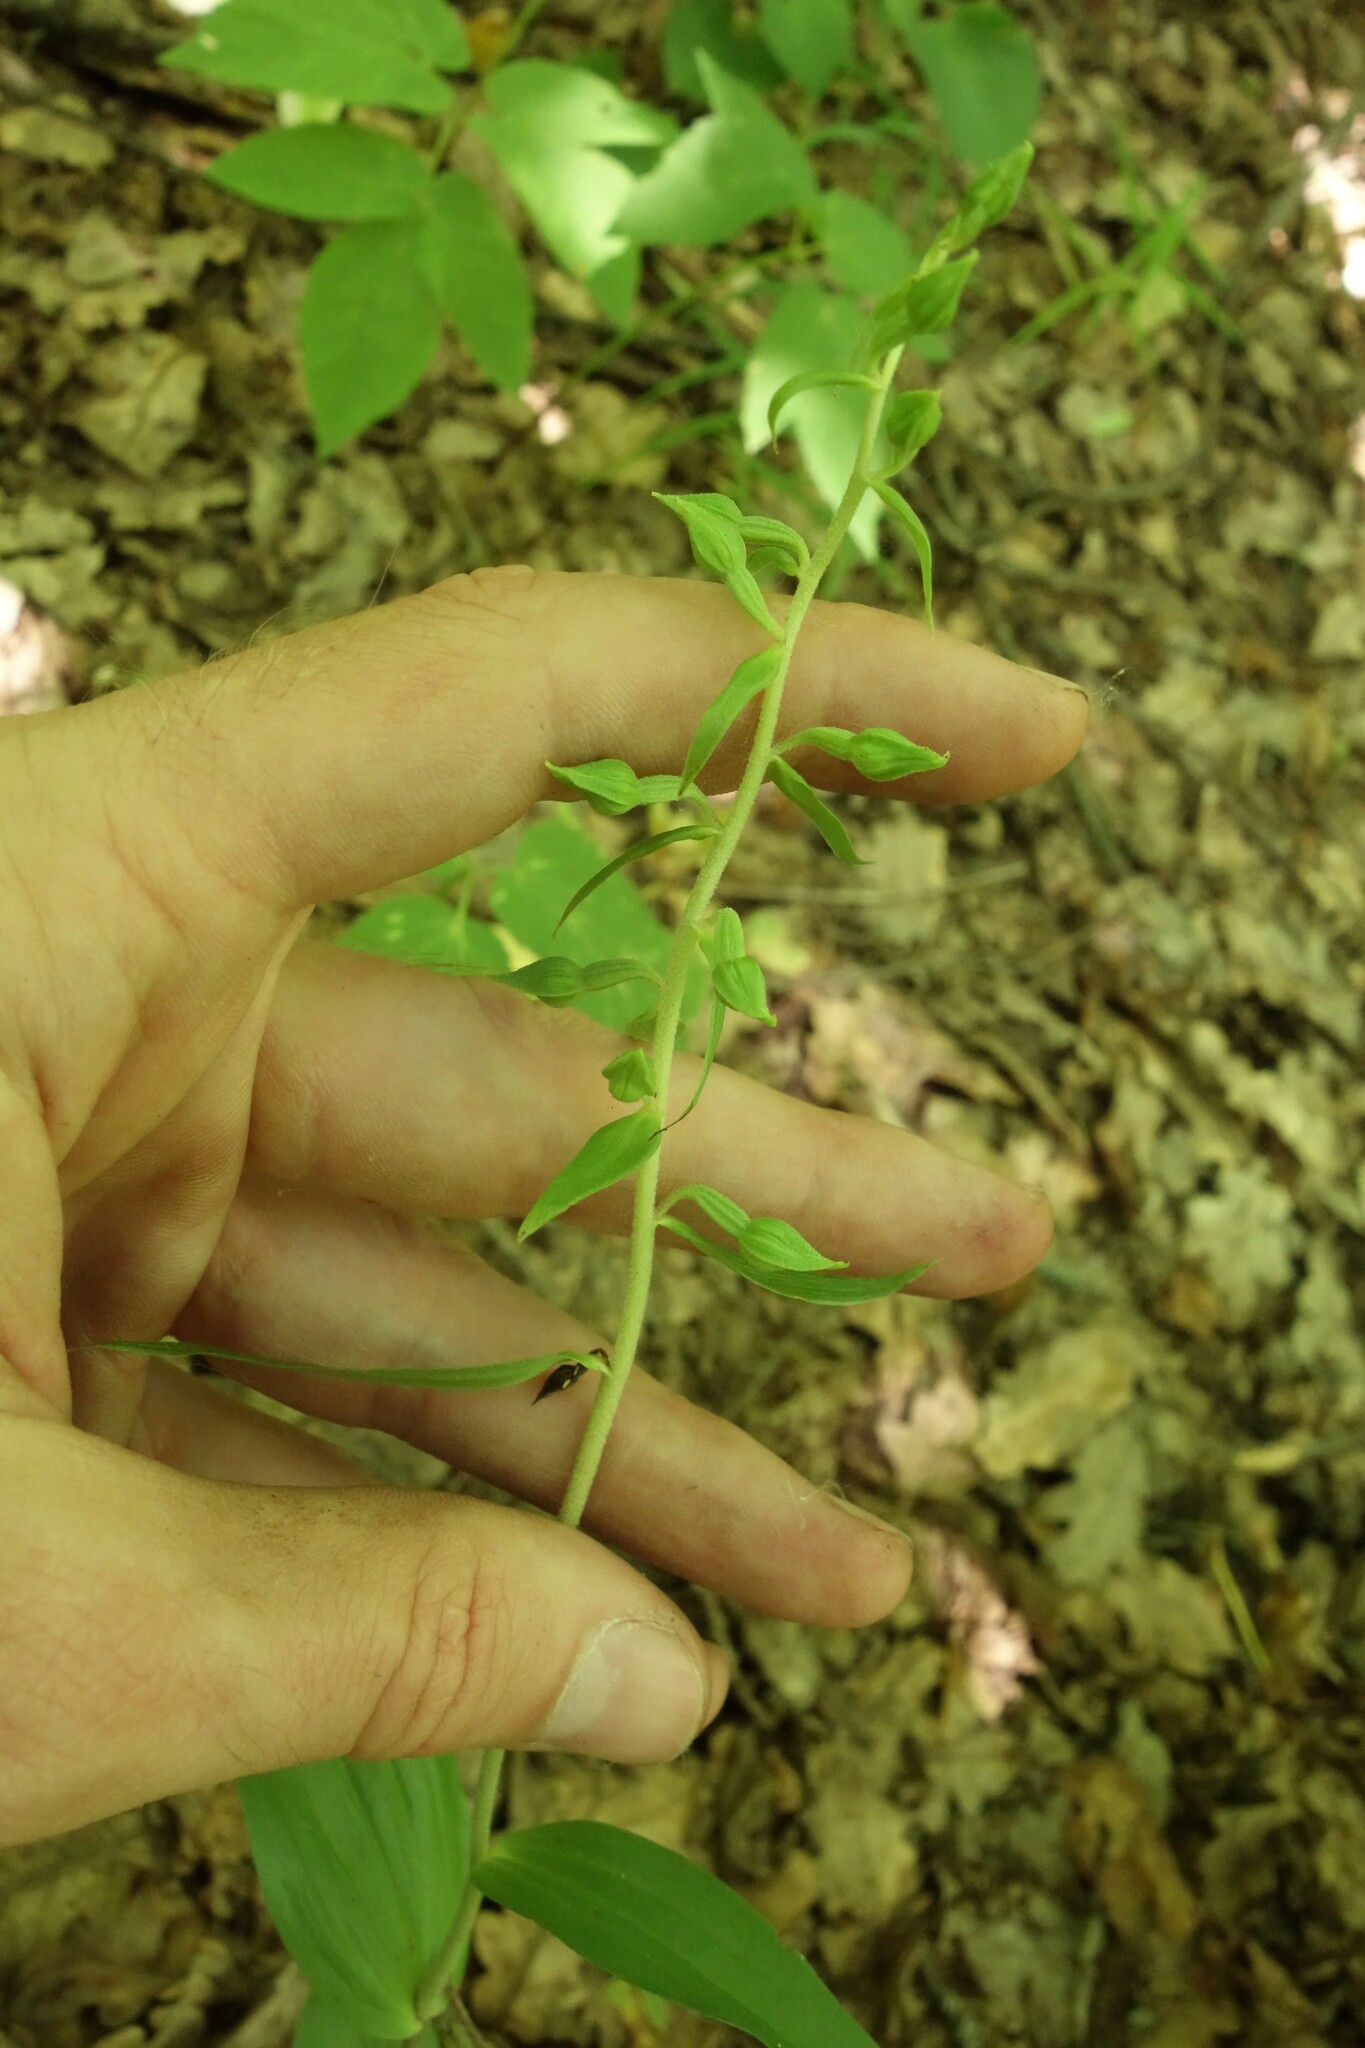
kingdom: Plantae
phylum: Tracheophyta
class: Liliopsida
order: Asparagales
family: Orchidaceae
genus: Epipactis
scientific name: Epipactis helleborine
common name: Broad-leaved helleborine
